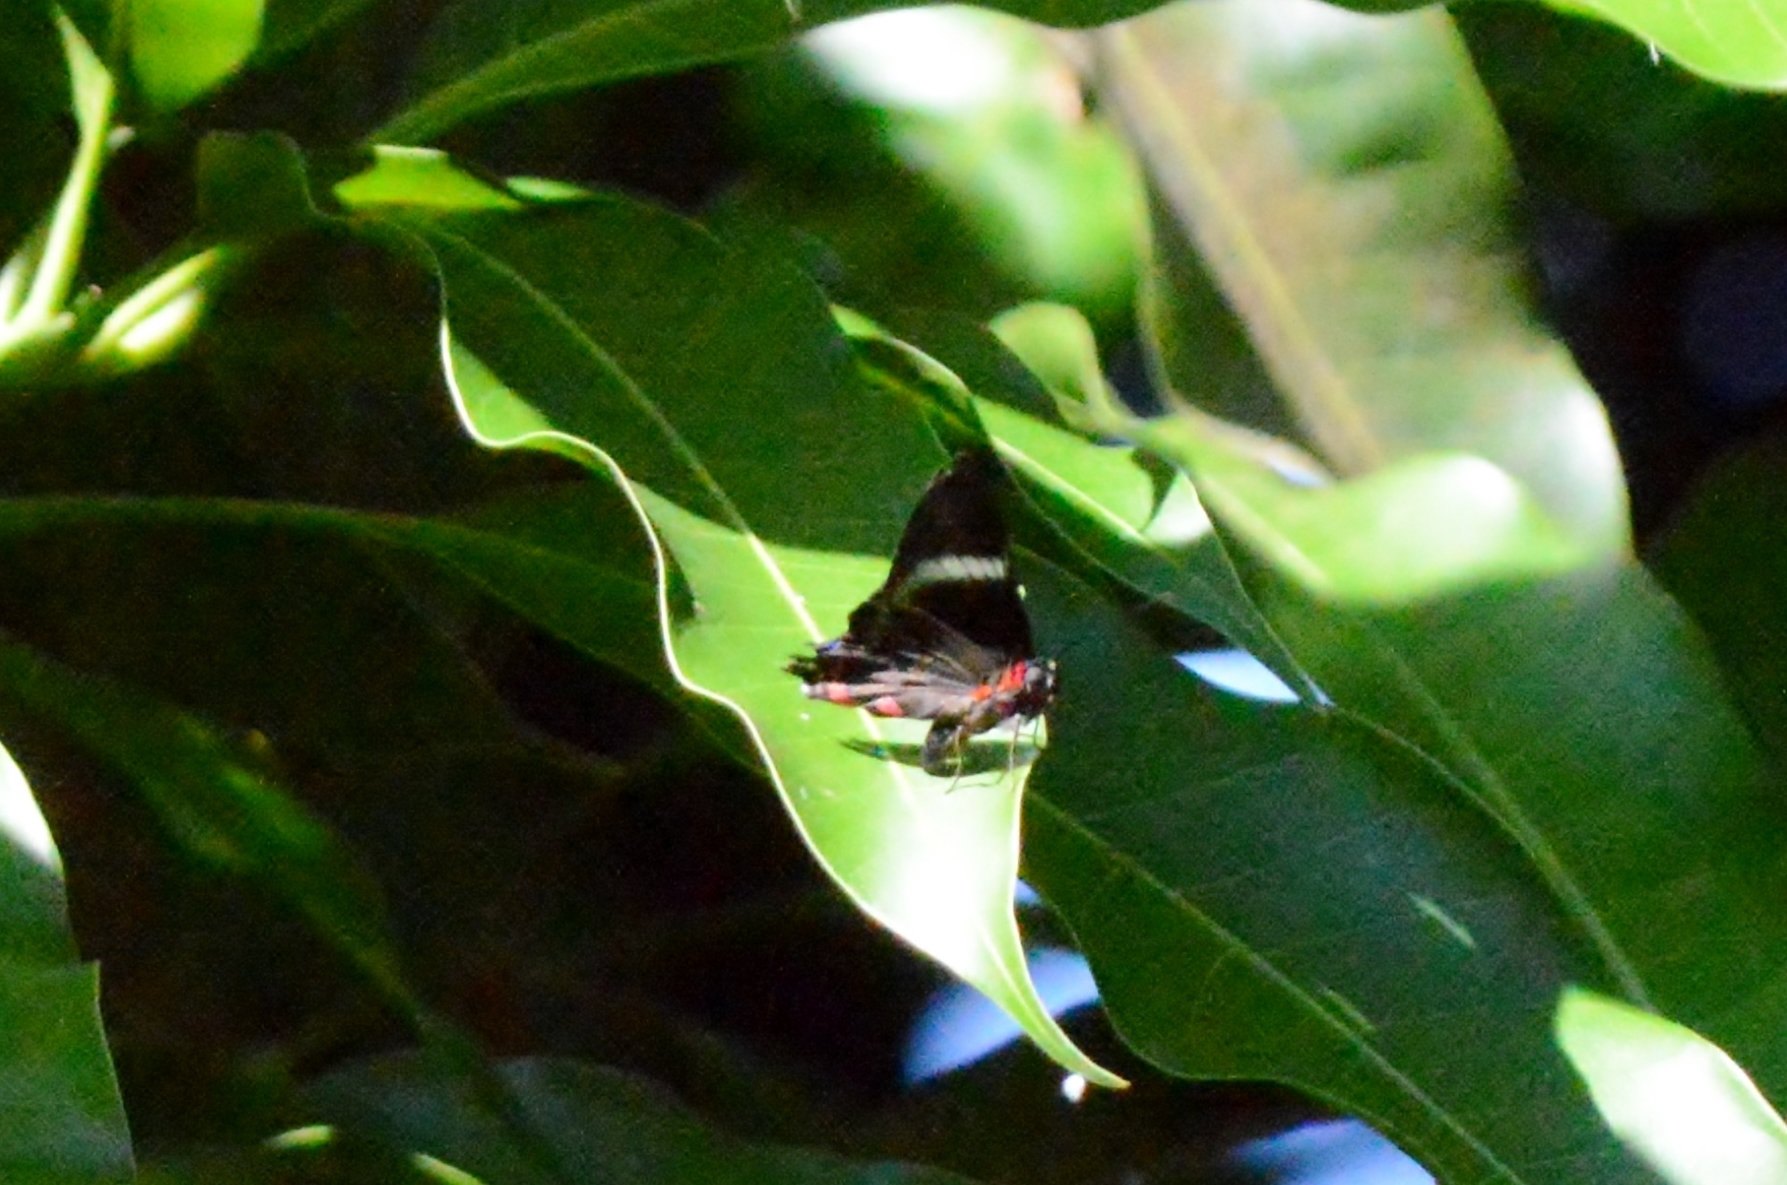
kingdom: Animalia
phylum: Arthropoda
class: Insecta
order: Lepidoptera
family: Riodinidae
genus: Rhetus
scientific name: Rhetus periander
